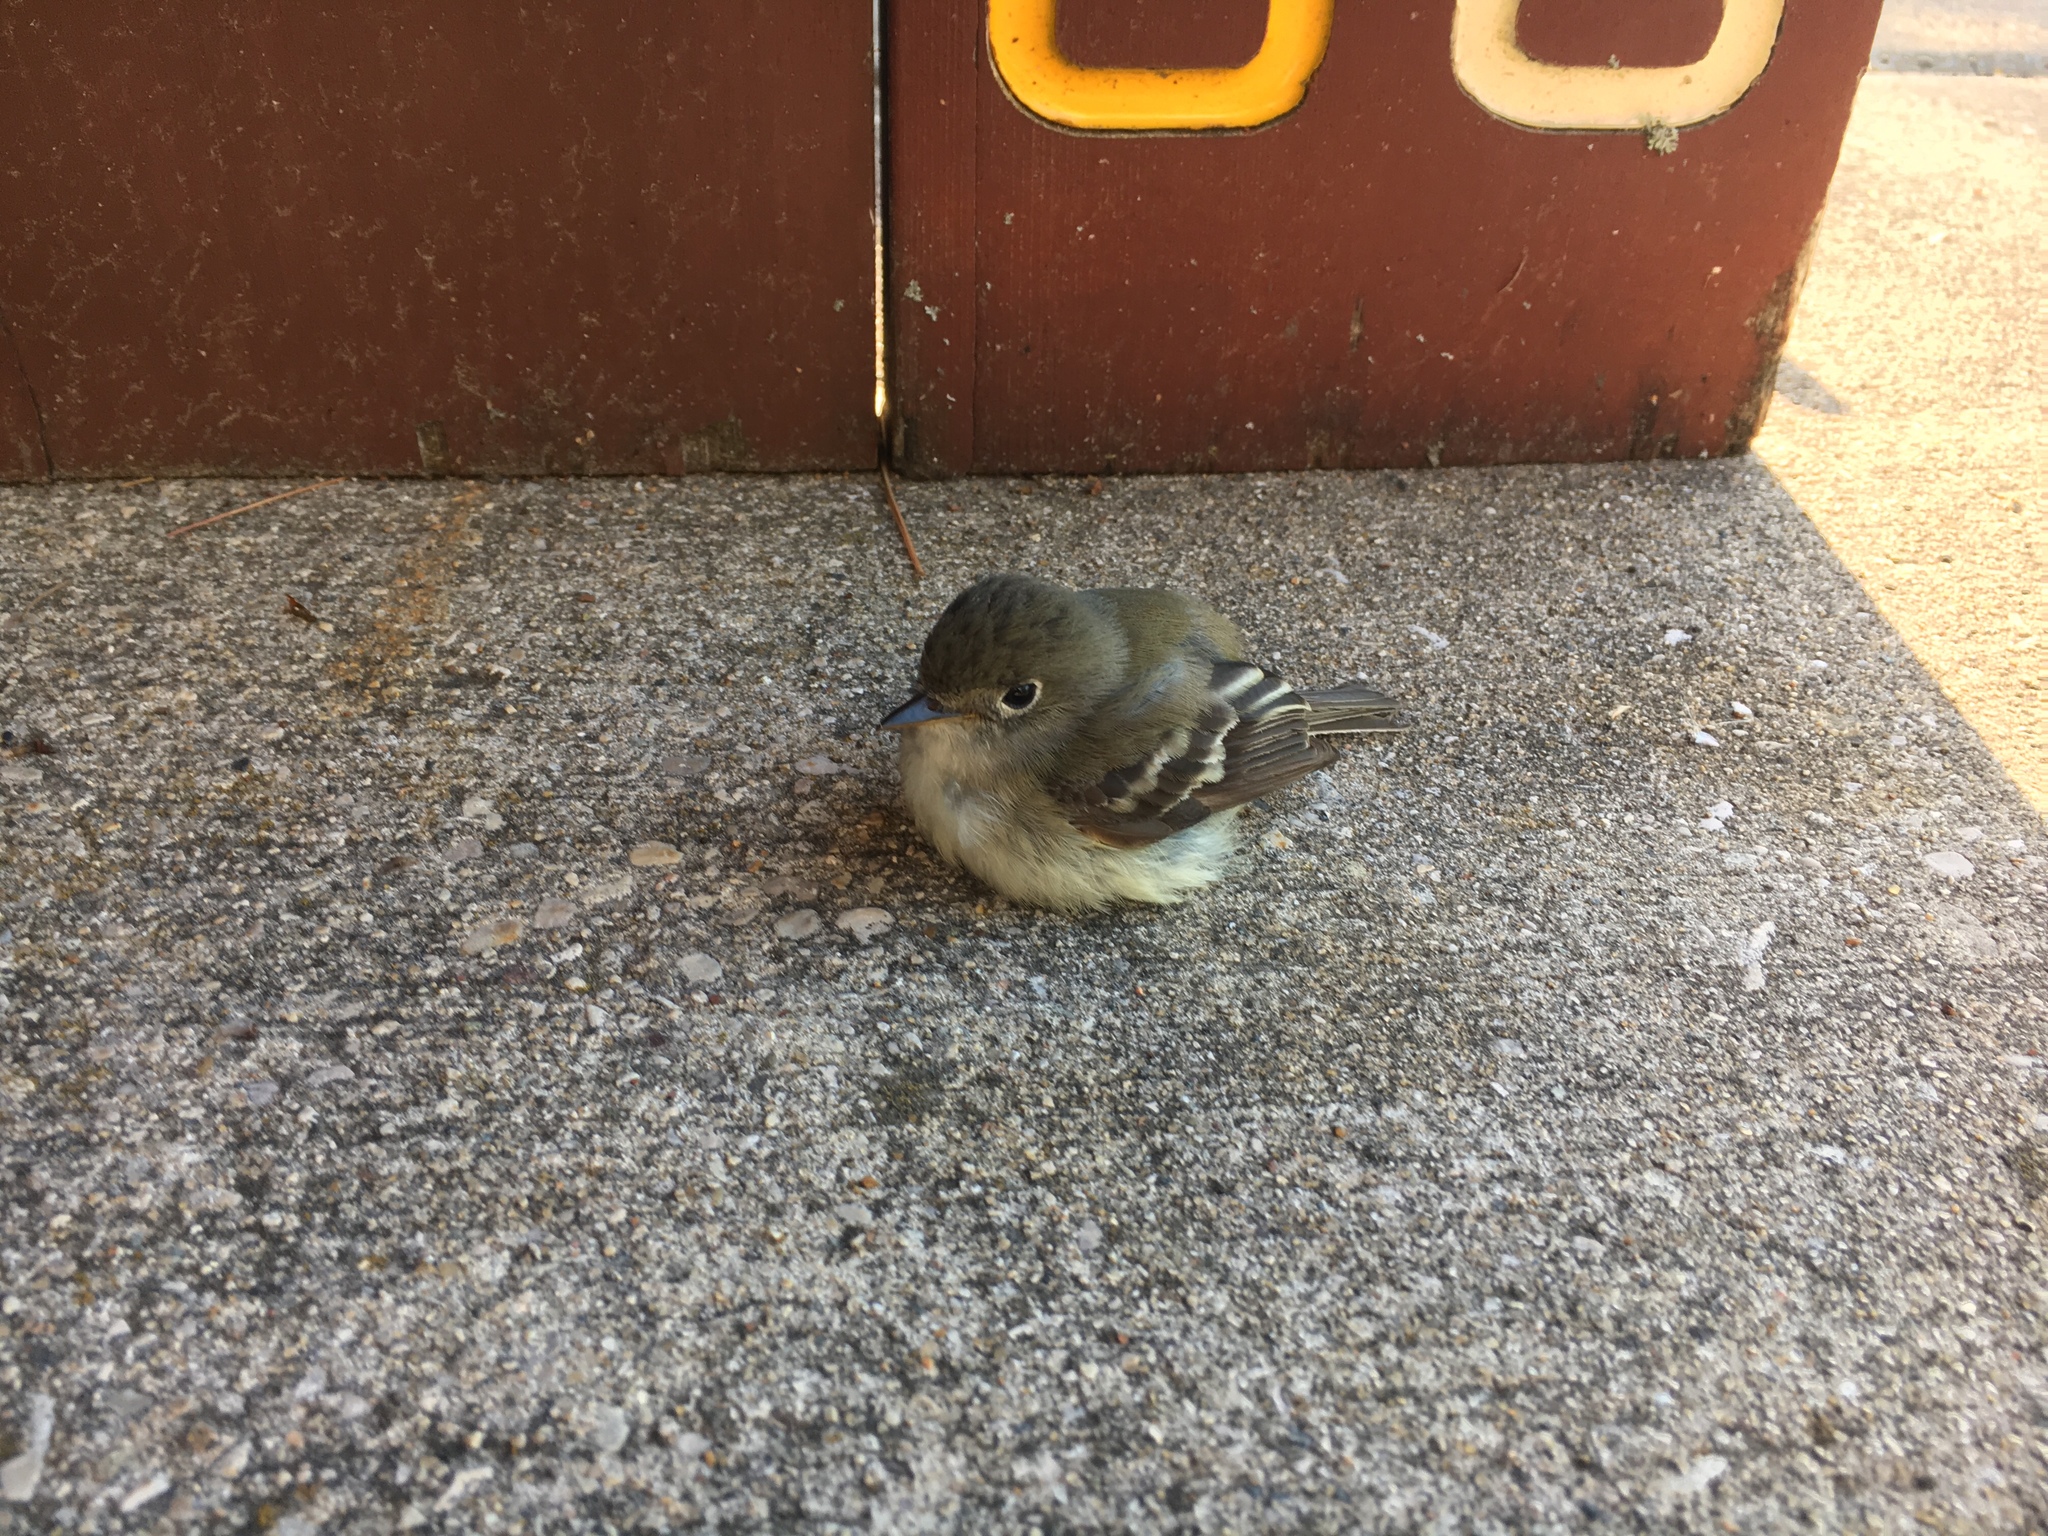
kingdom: Animalia
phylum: Chordata
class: Aves
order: Passeriformes
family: Tyrannidae
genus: Empidonax
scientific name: Empidonax minimus
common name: Least flycatcher
